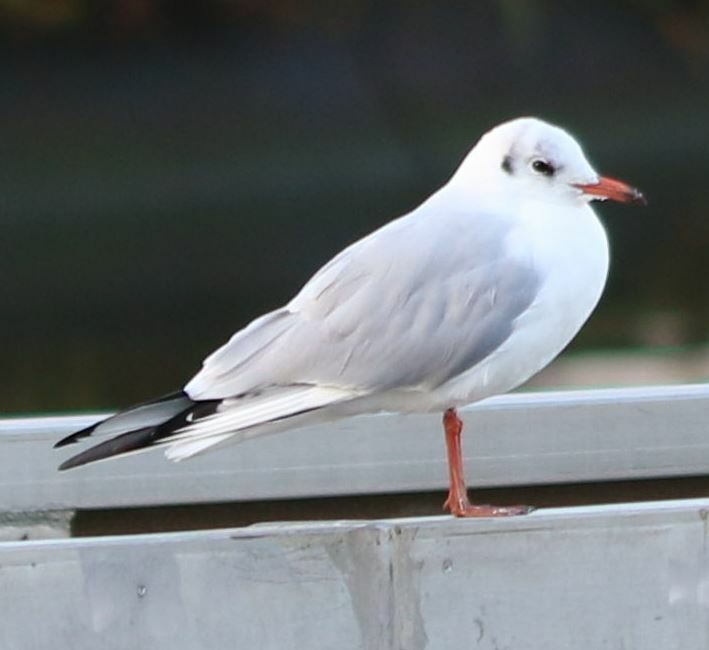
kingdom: Animalia
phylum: Chordata
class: Aves
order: Charadriiformes
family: Laridae
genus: Chroicocephalus
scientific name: Chroicocephalus ridibundus
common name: Black-headed gull
